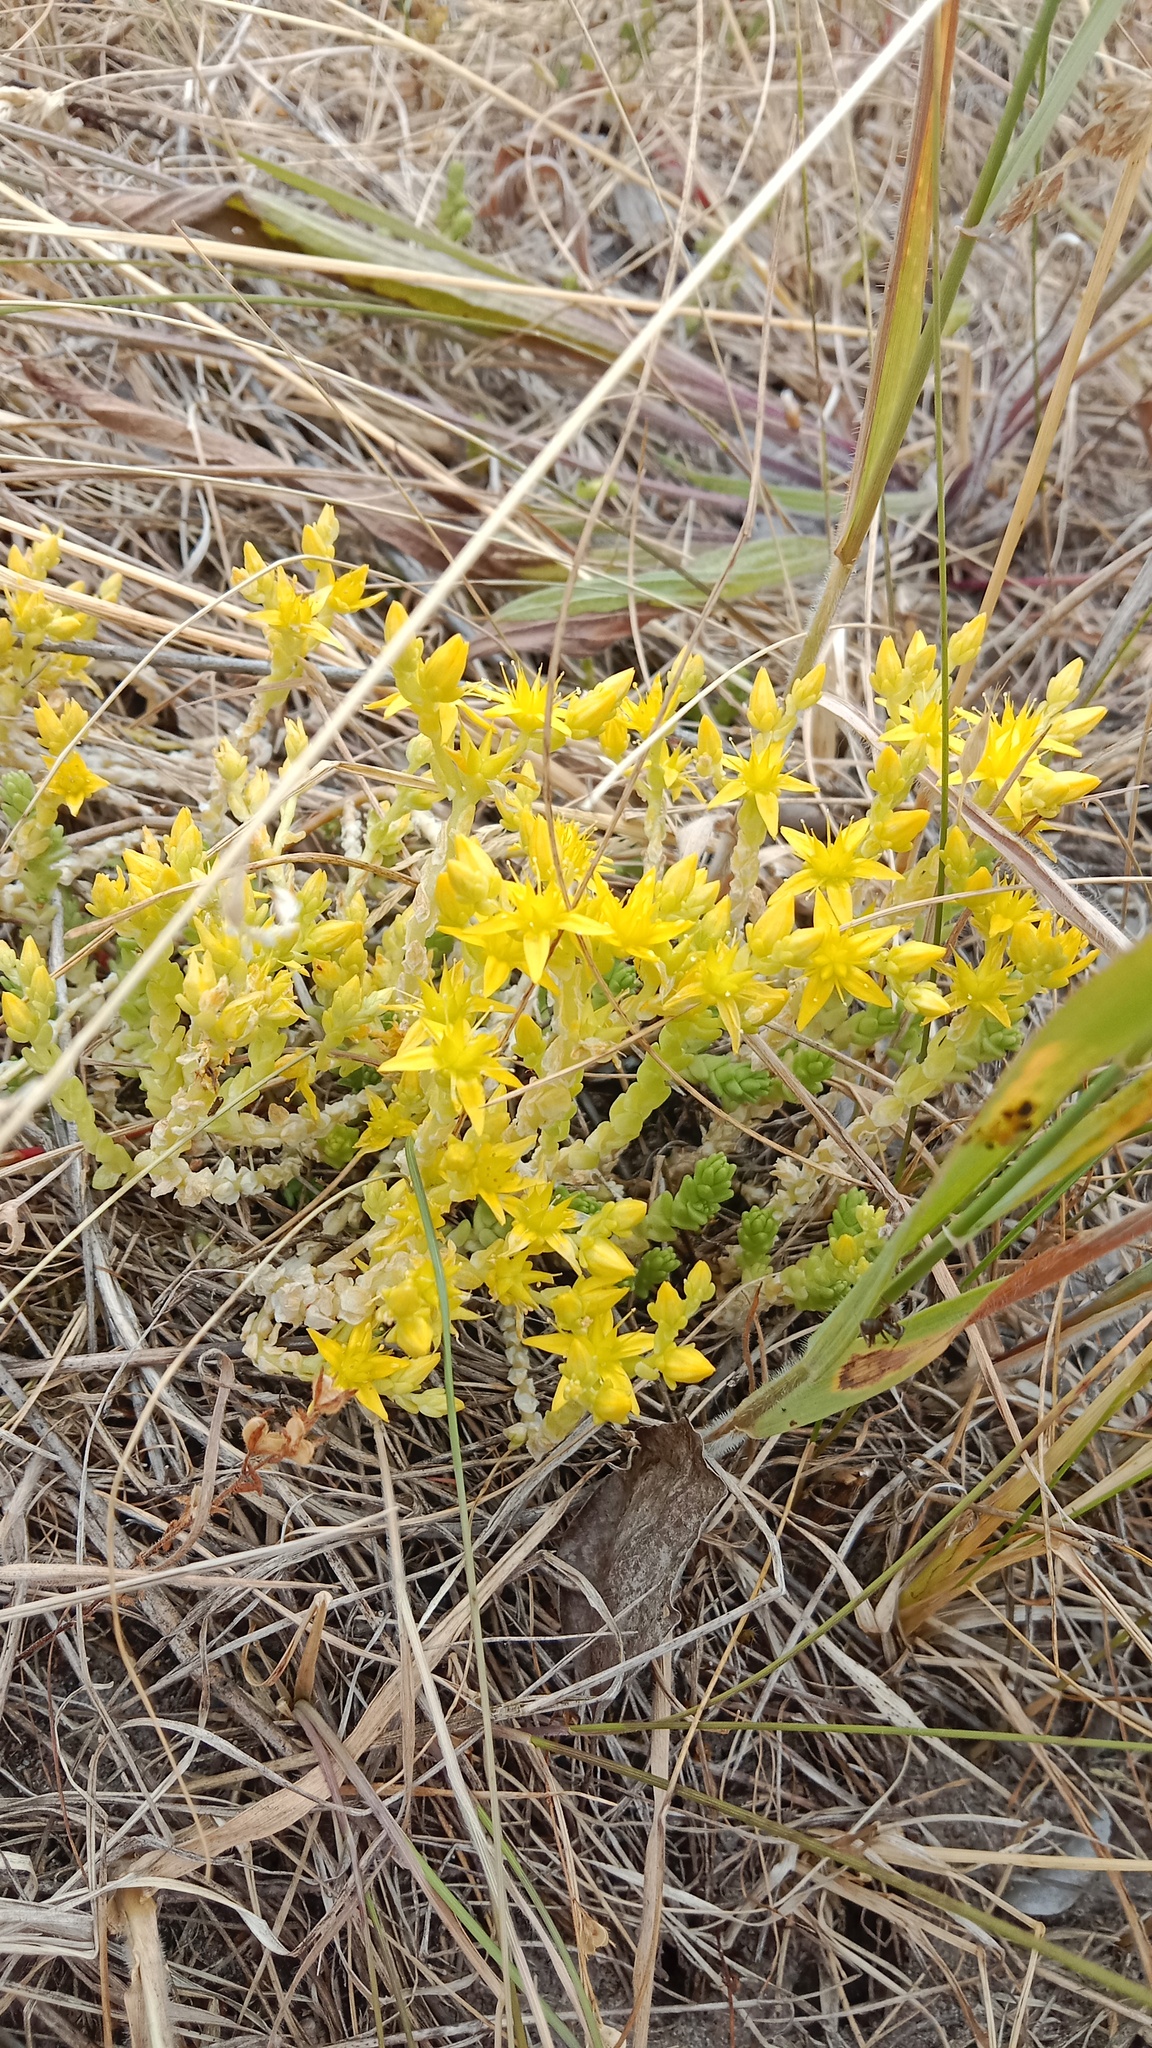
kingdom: Plantae
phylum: Tracheophyta
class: Magnoliopsida
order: Saxifragales
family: Crassulaceae
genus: Sedum
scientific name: Sedum acre
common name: Biting stonecrop
